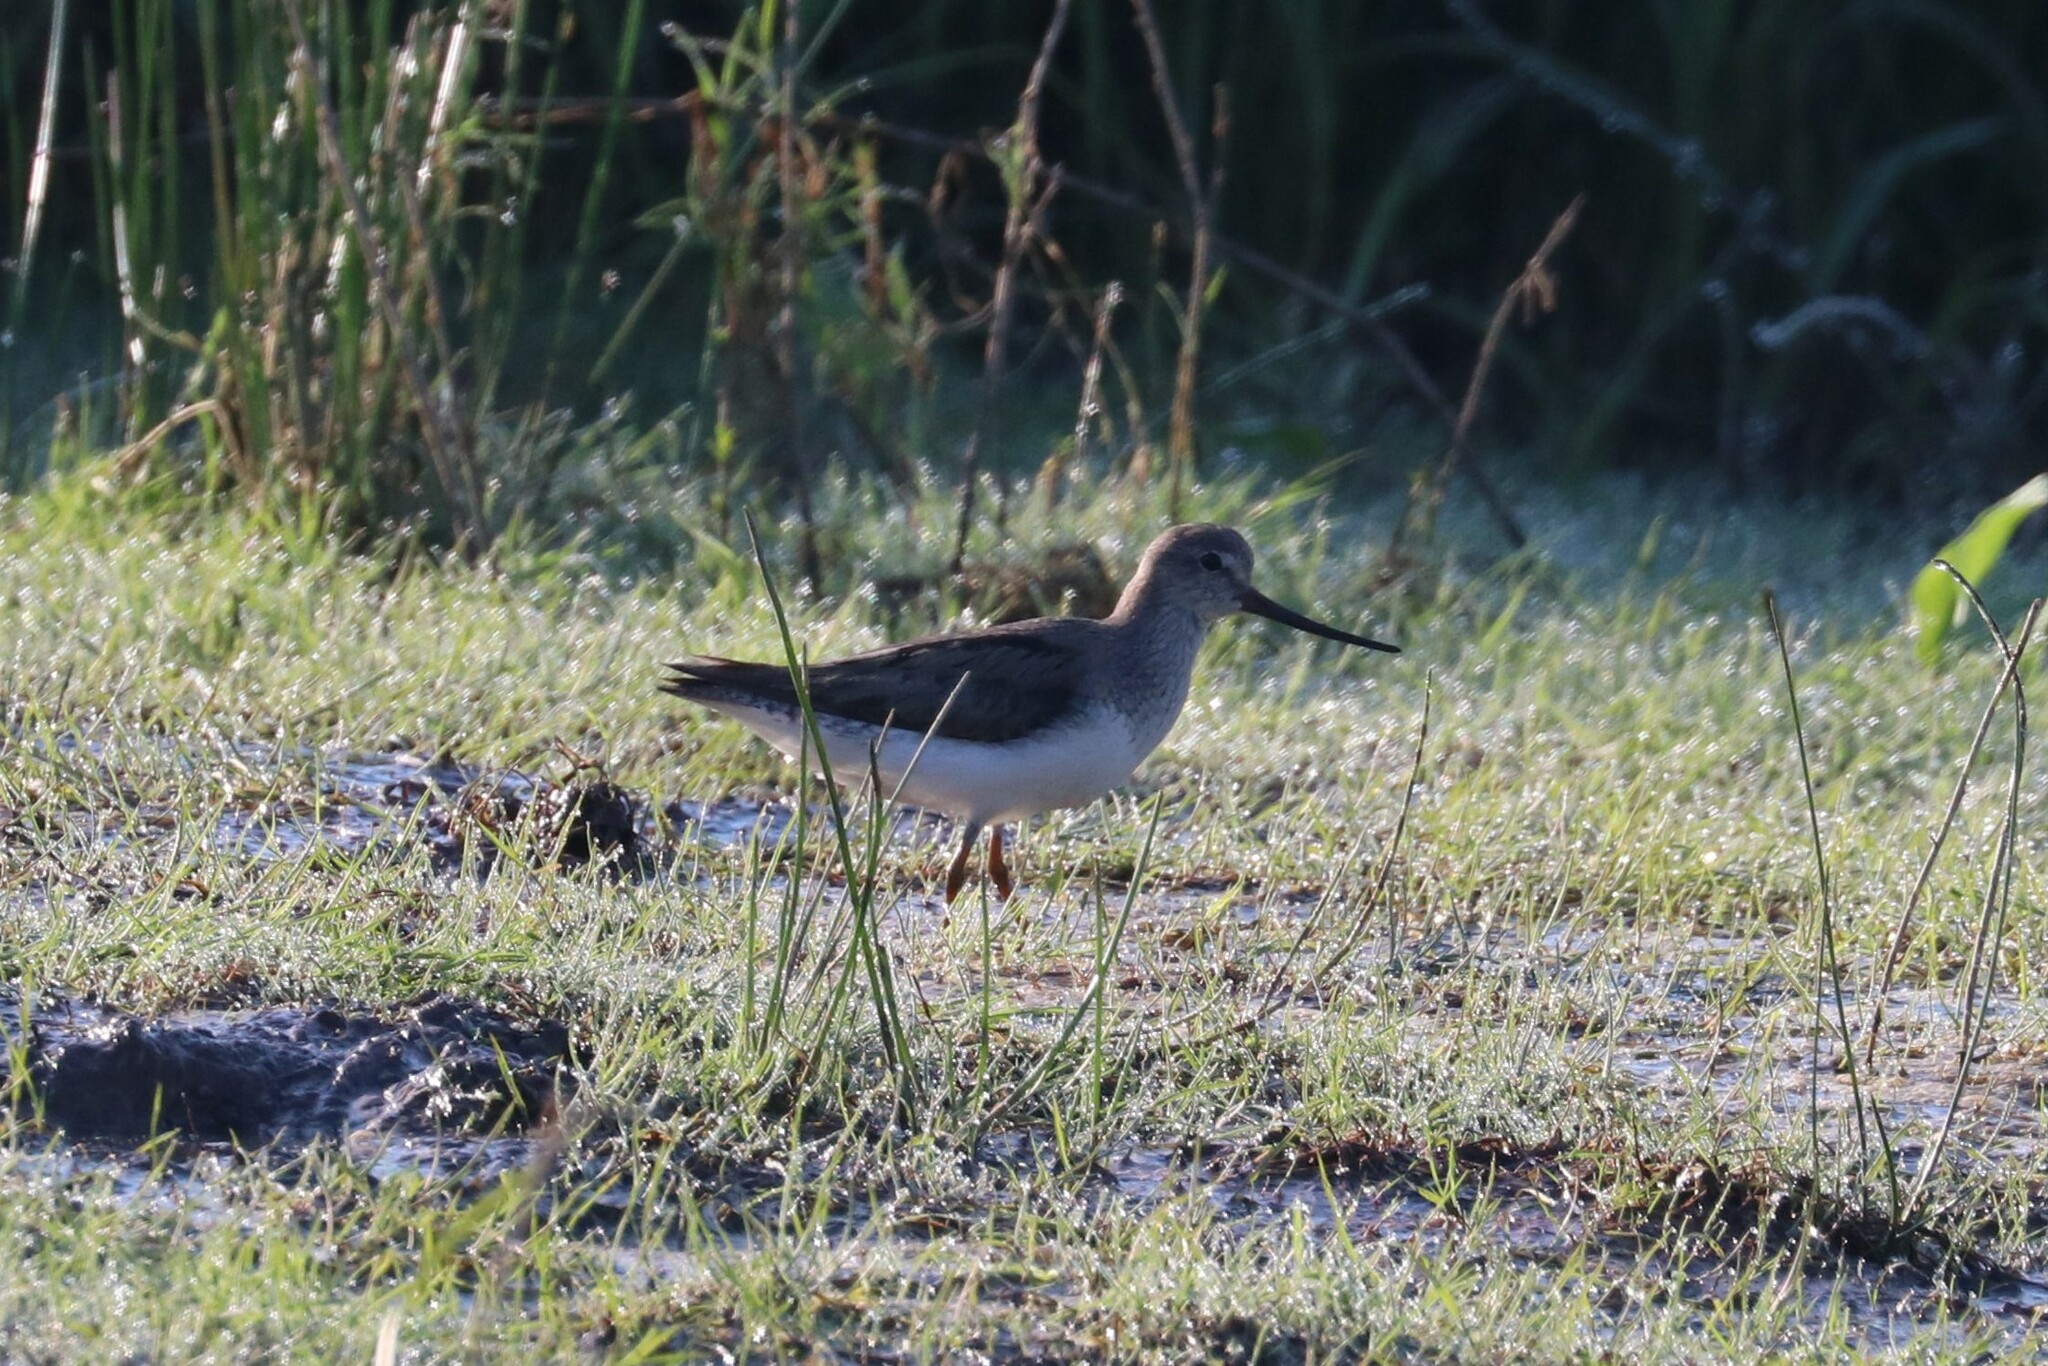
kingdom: Animalia
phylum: Chordata
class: Aves
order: Charadriiformes
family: Scolopacidae
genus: Xenus
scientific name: Xenus cinereus
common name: Terek sandpiper
